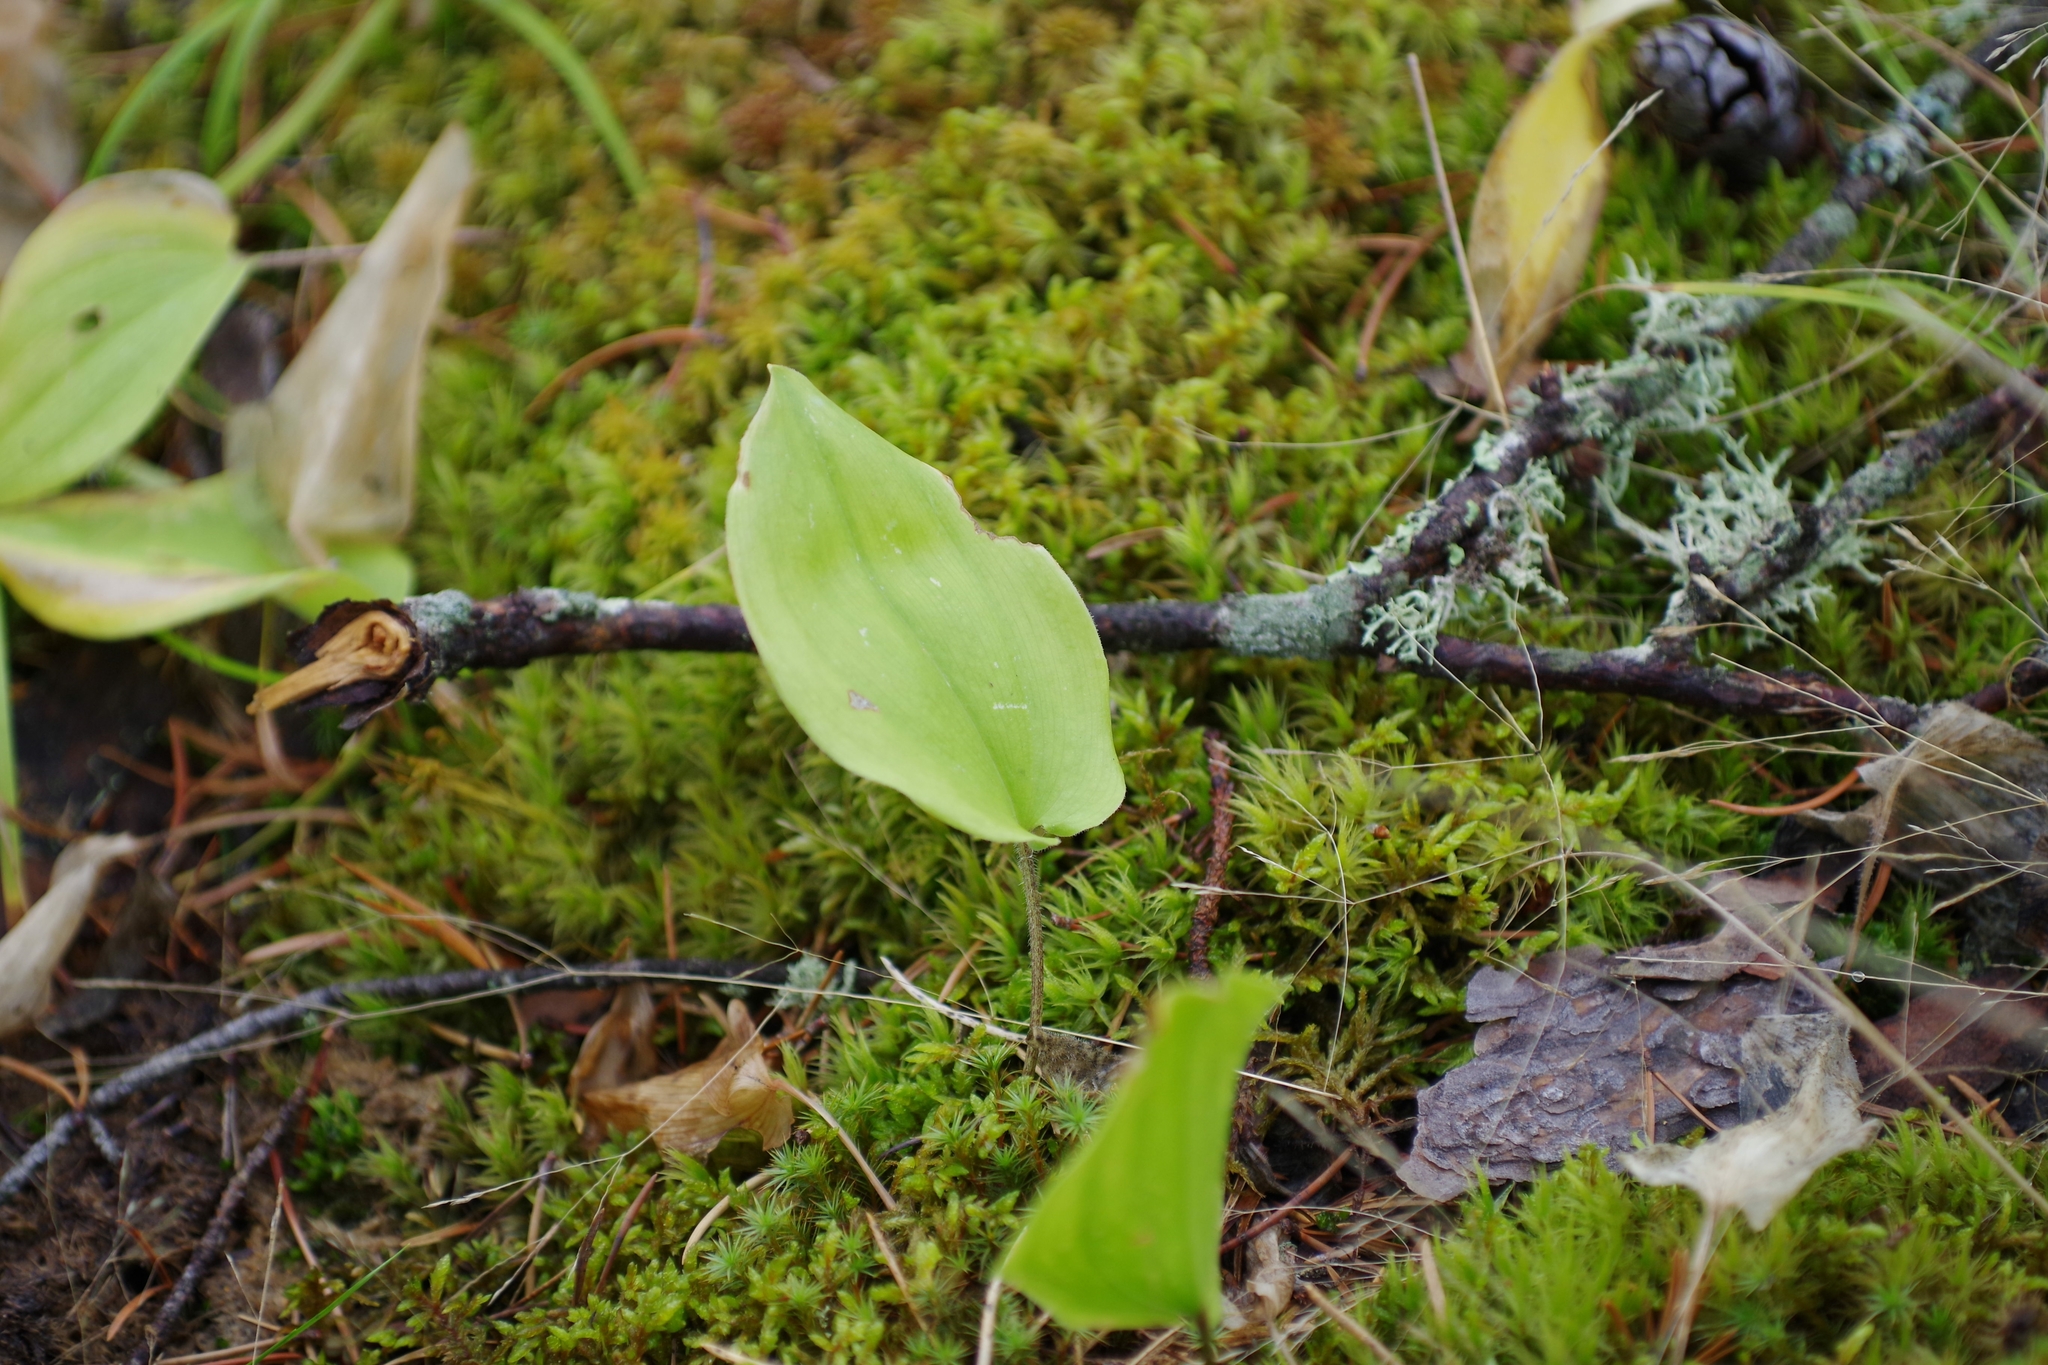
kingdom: Plantae
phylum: Tracheophyta
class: Liliopsida
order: Asparagales
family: Asparagaceae
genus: Maianthemum
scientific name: Maianthemum canadense
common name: False lily-of-the-valley
